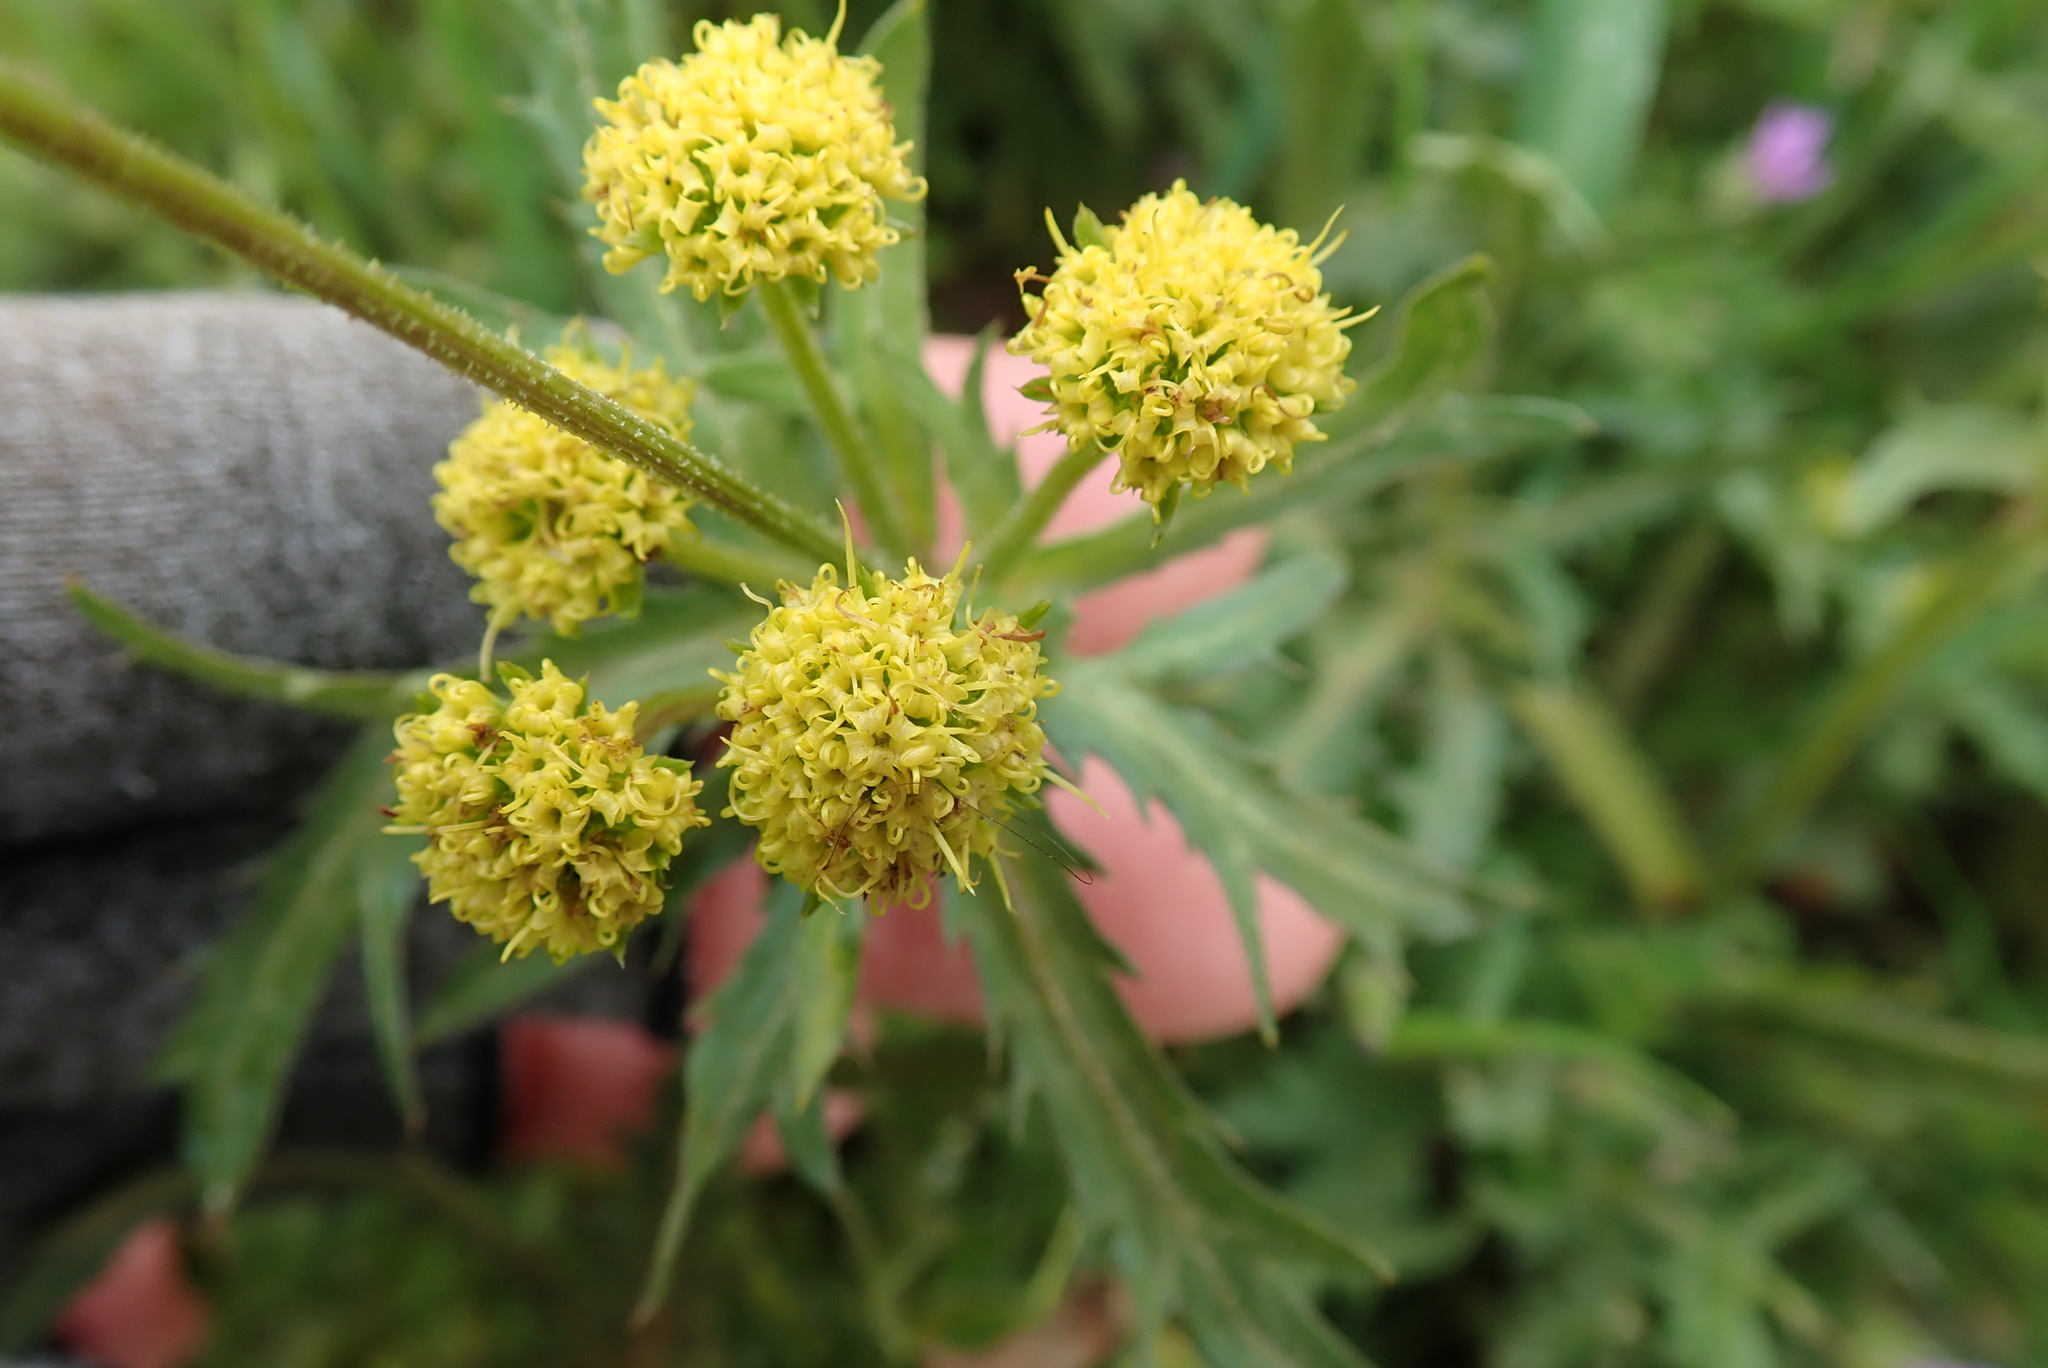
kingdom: Plantae
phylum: Tracheophyta
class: Magnoliopsida
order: Apiales
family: Apiaceae
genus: Sanicula
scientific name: Sanicula arguta
